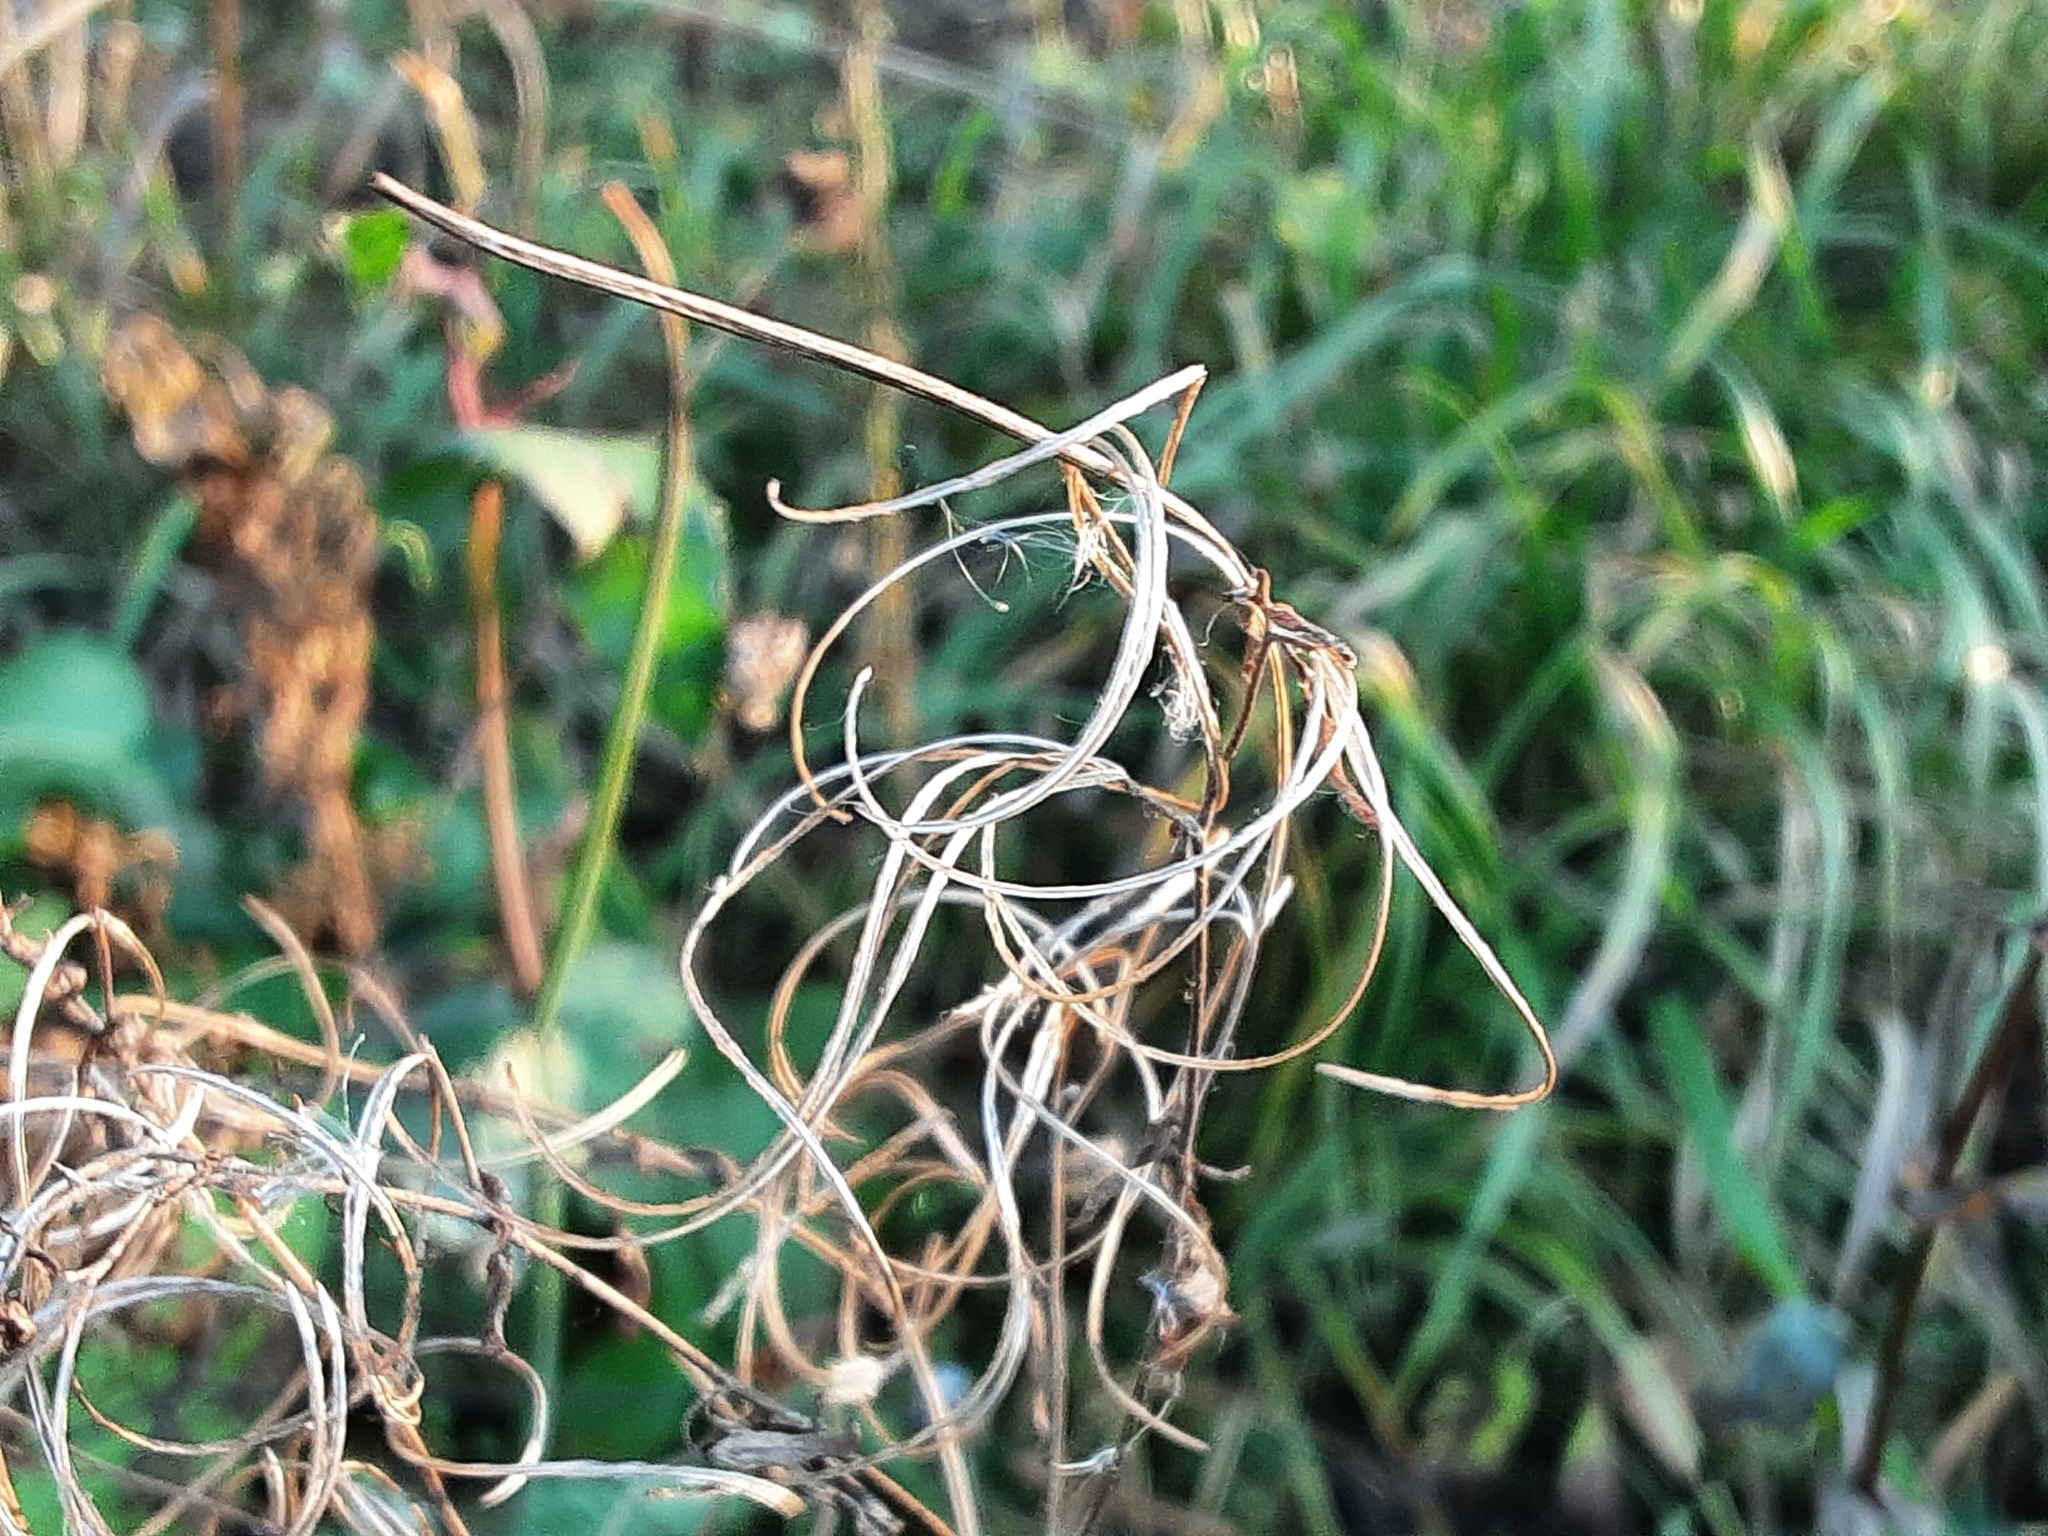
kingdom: Plantae
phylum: Tracheophyta
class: Magnoliopsida
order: Myrtales
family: Onagraceae
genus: Epilobium
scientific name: Epilobium
